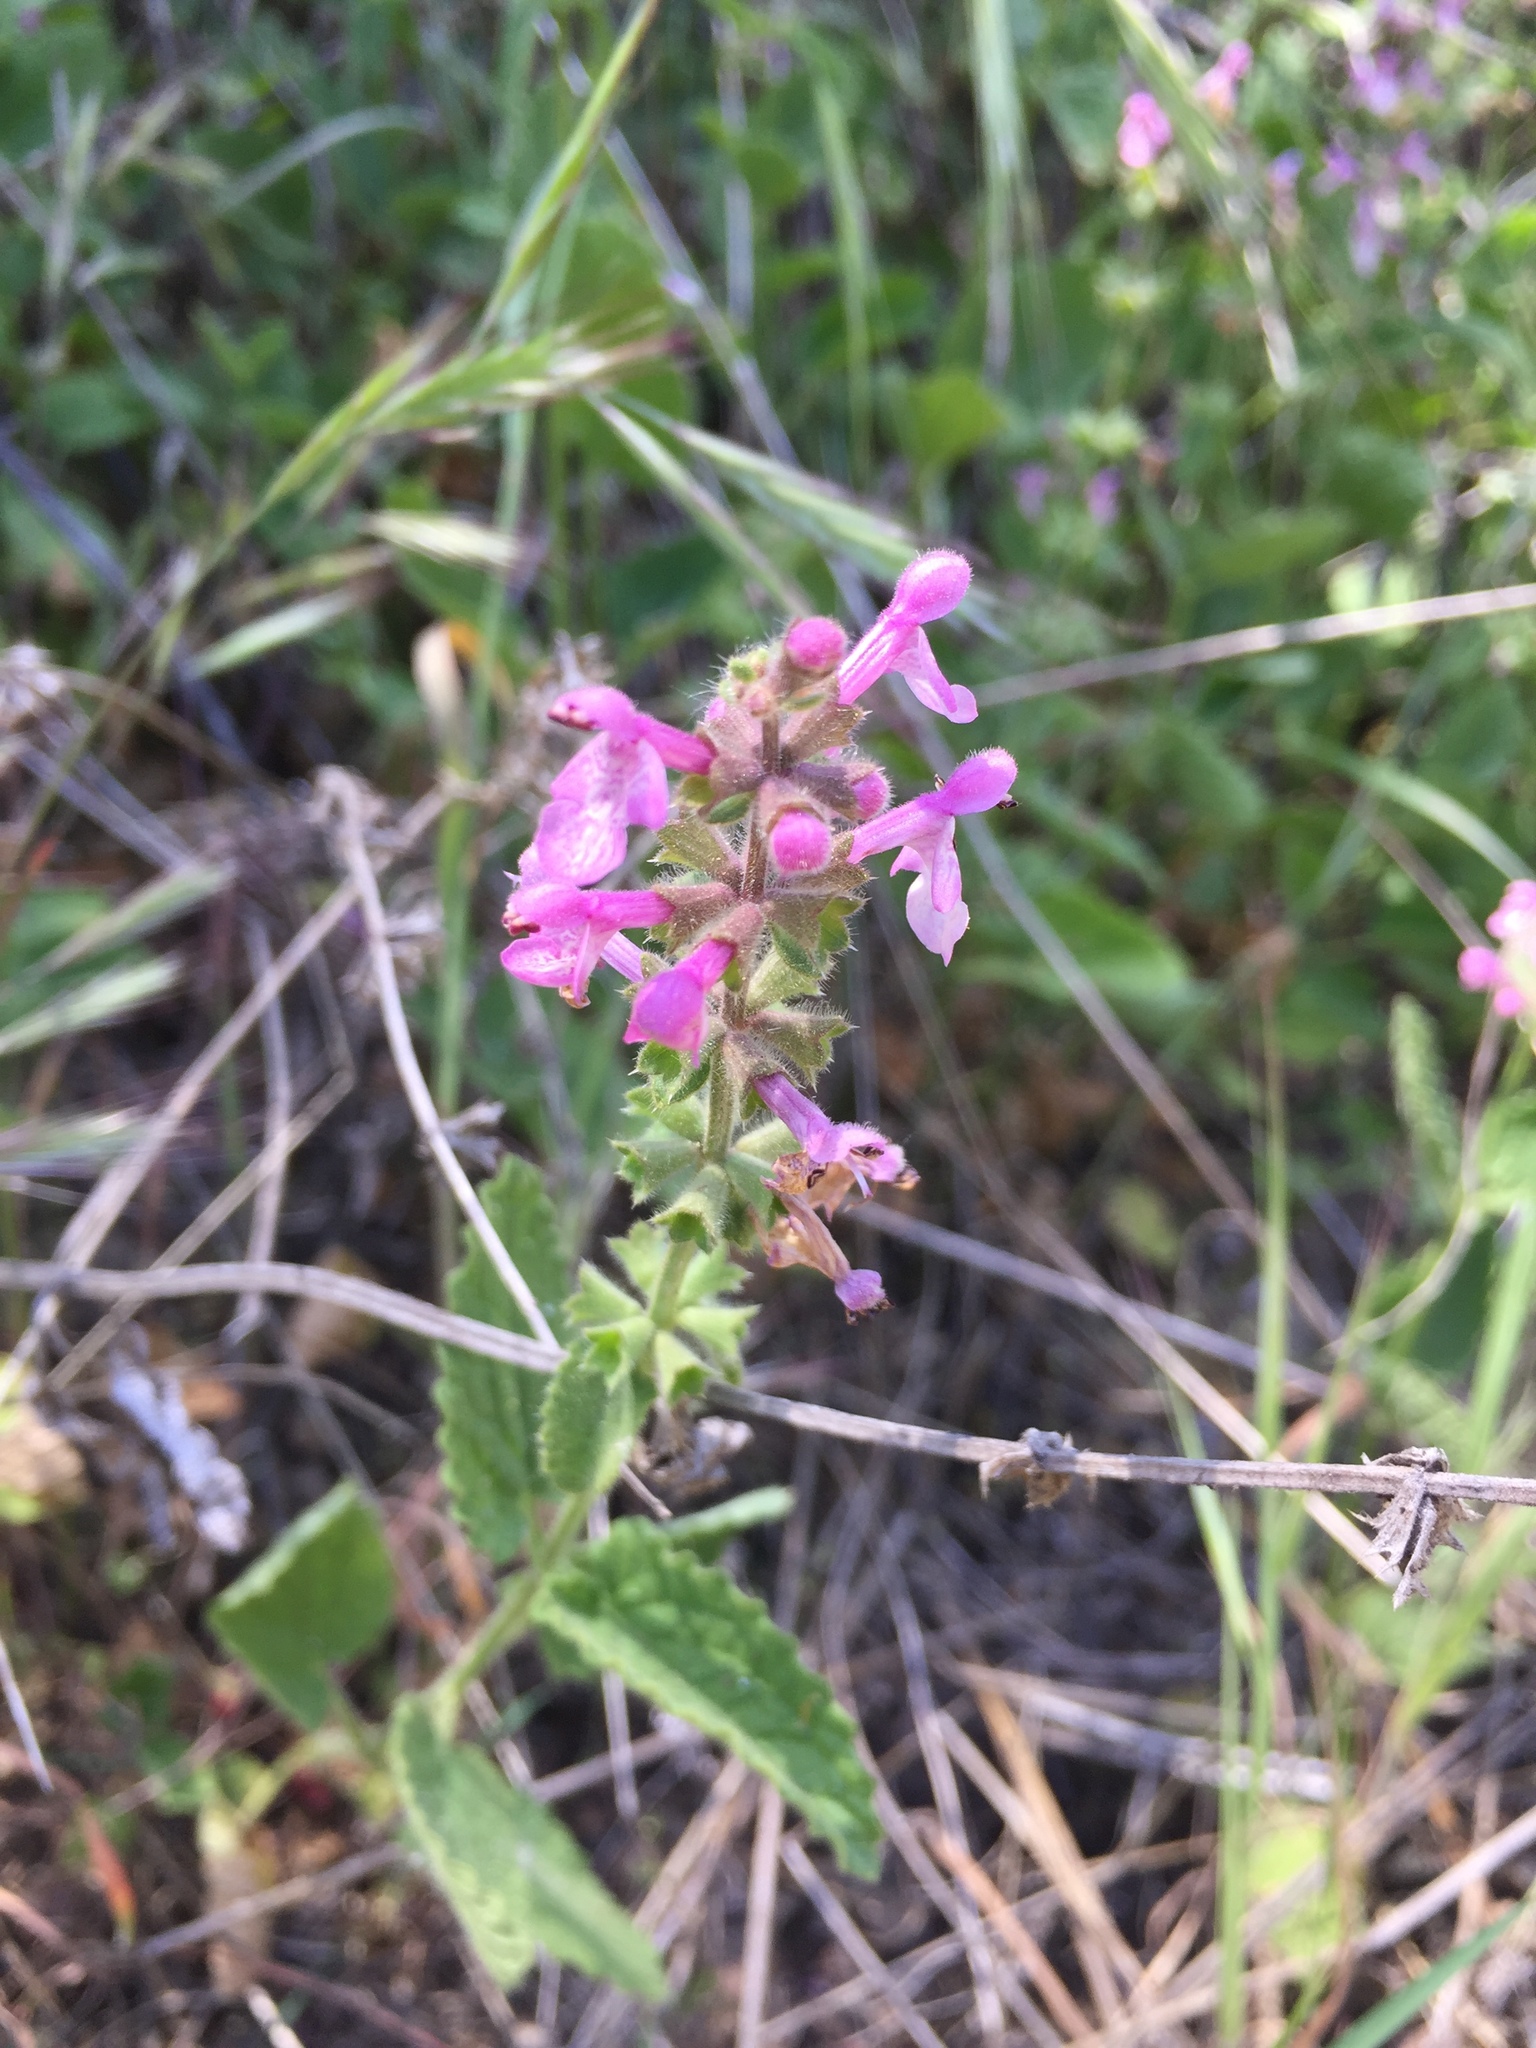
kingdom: Plantae
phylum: Tracheophyta
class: Magnoliopsida
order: Lamiales
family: Lamiaceae
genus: Stachys
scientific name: Stachys bullata
